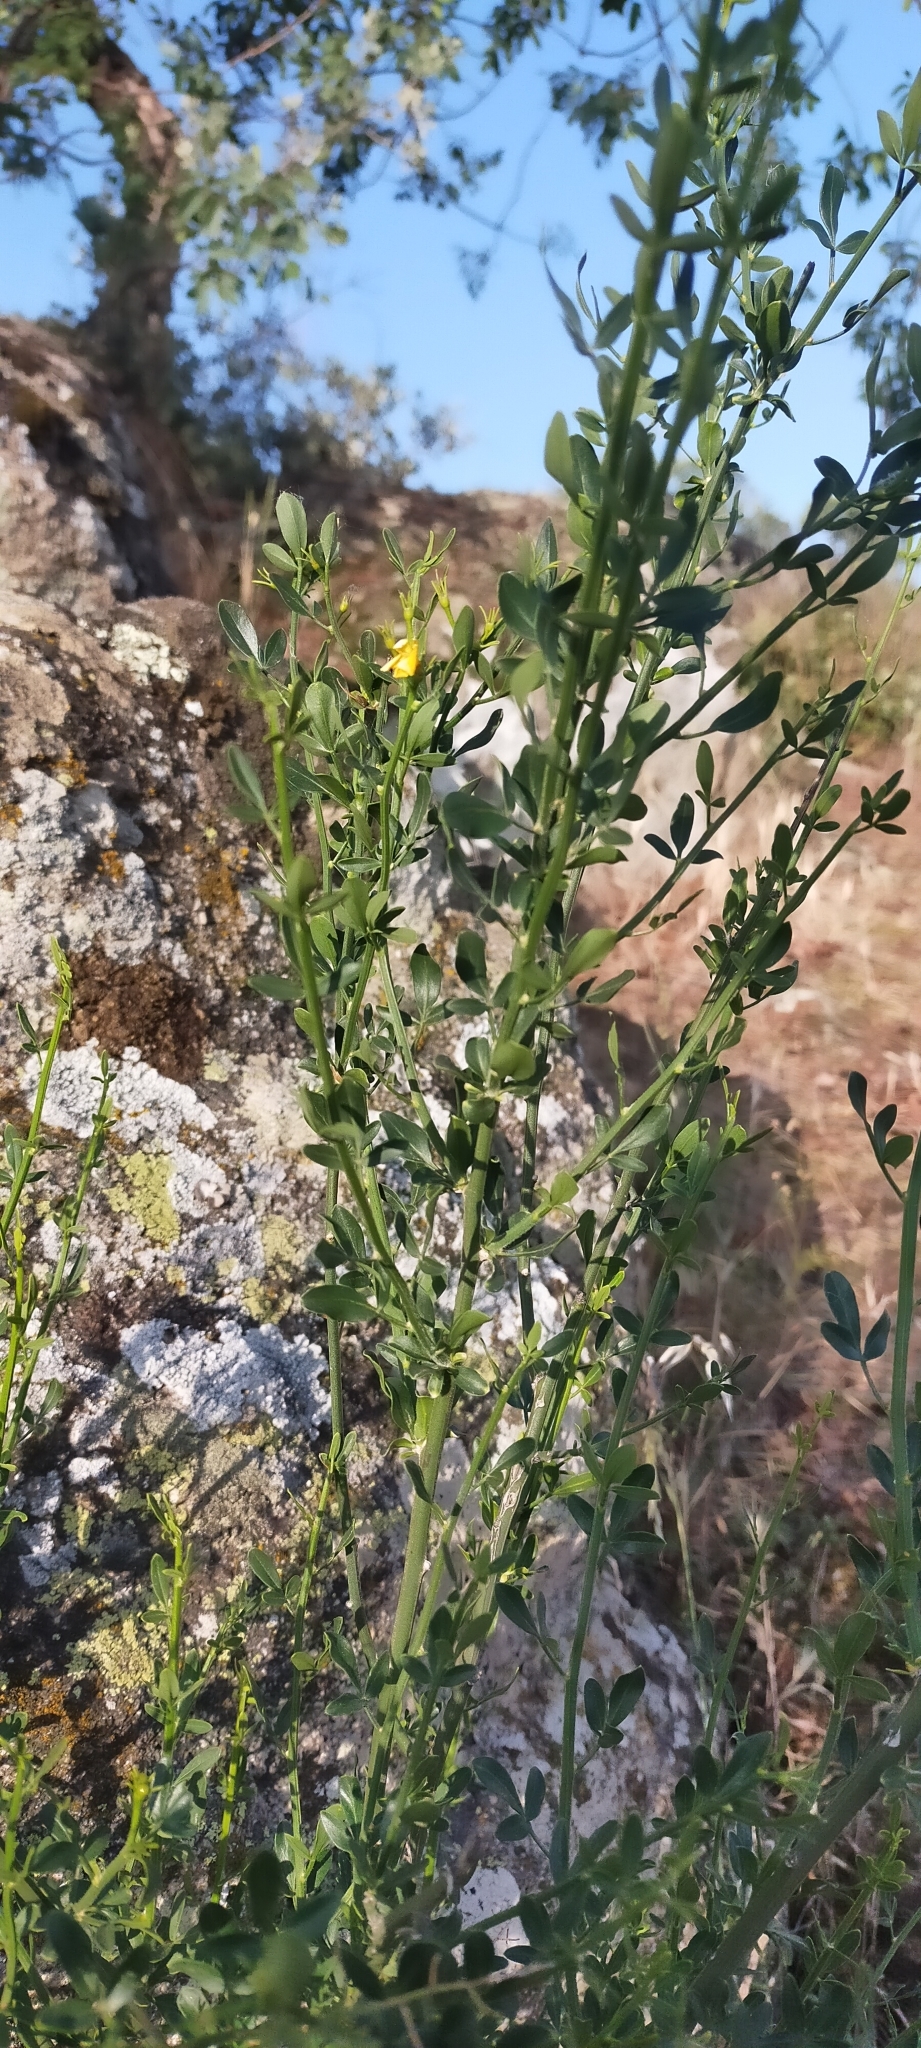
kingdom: Plantae
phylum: Tracheophyta
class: Magnoliopsida
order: Lamiales
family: Oleaceae
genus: Chrysojasminum
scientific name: Chrysojasminum fruticans
